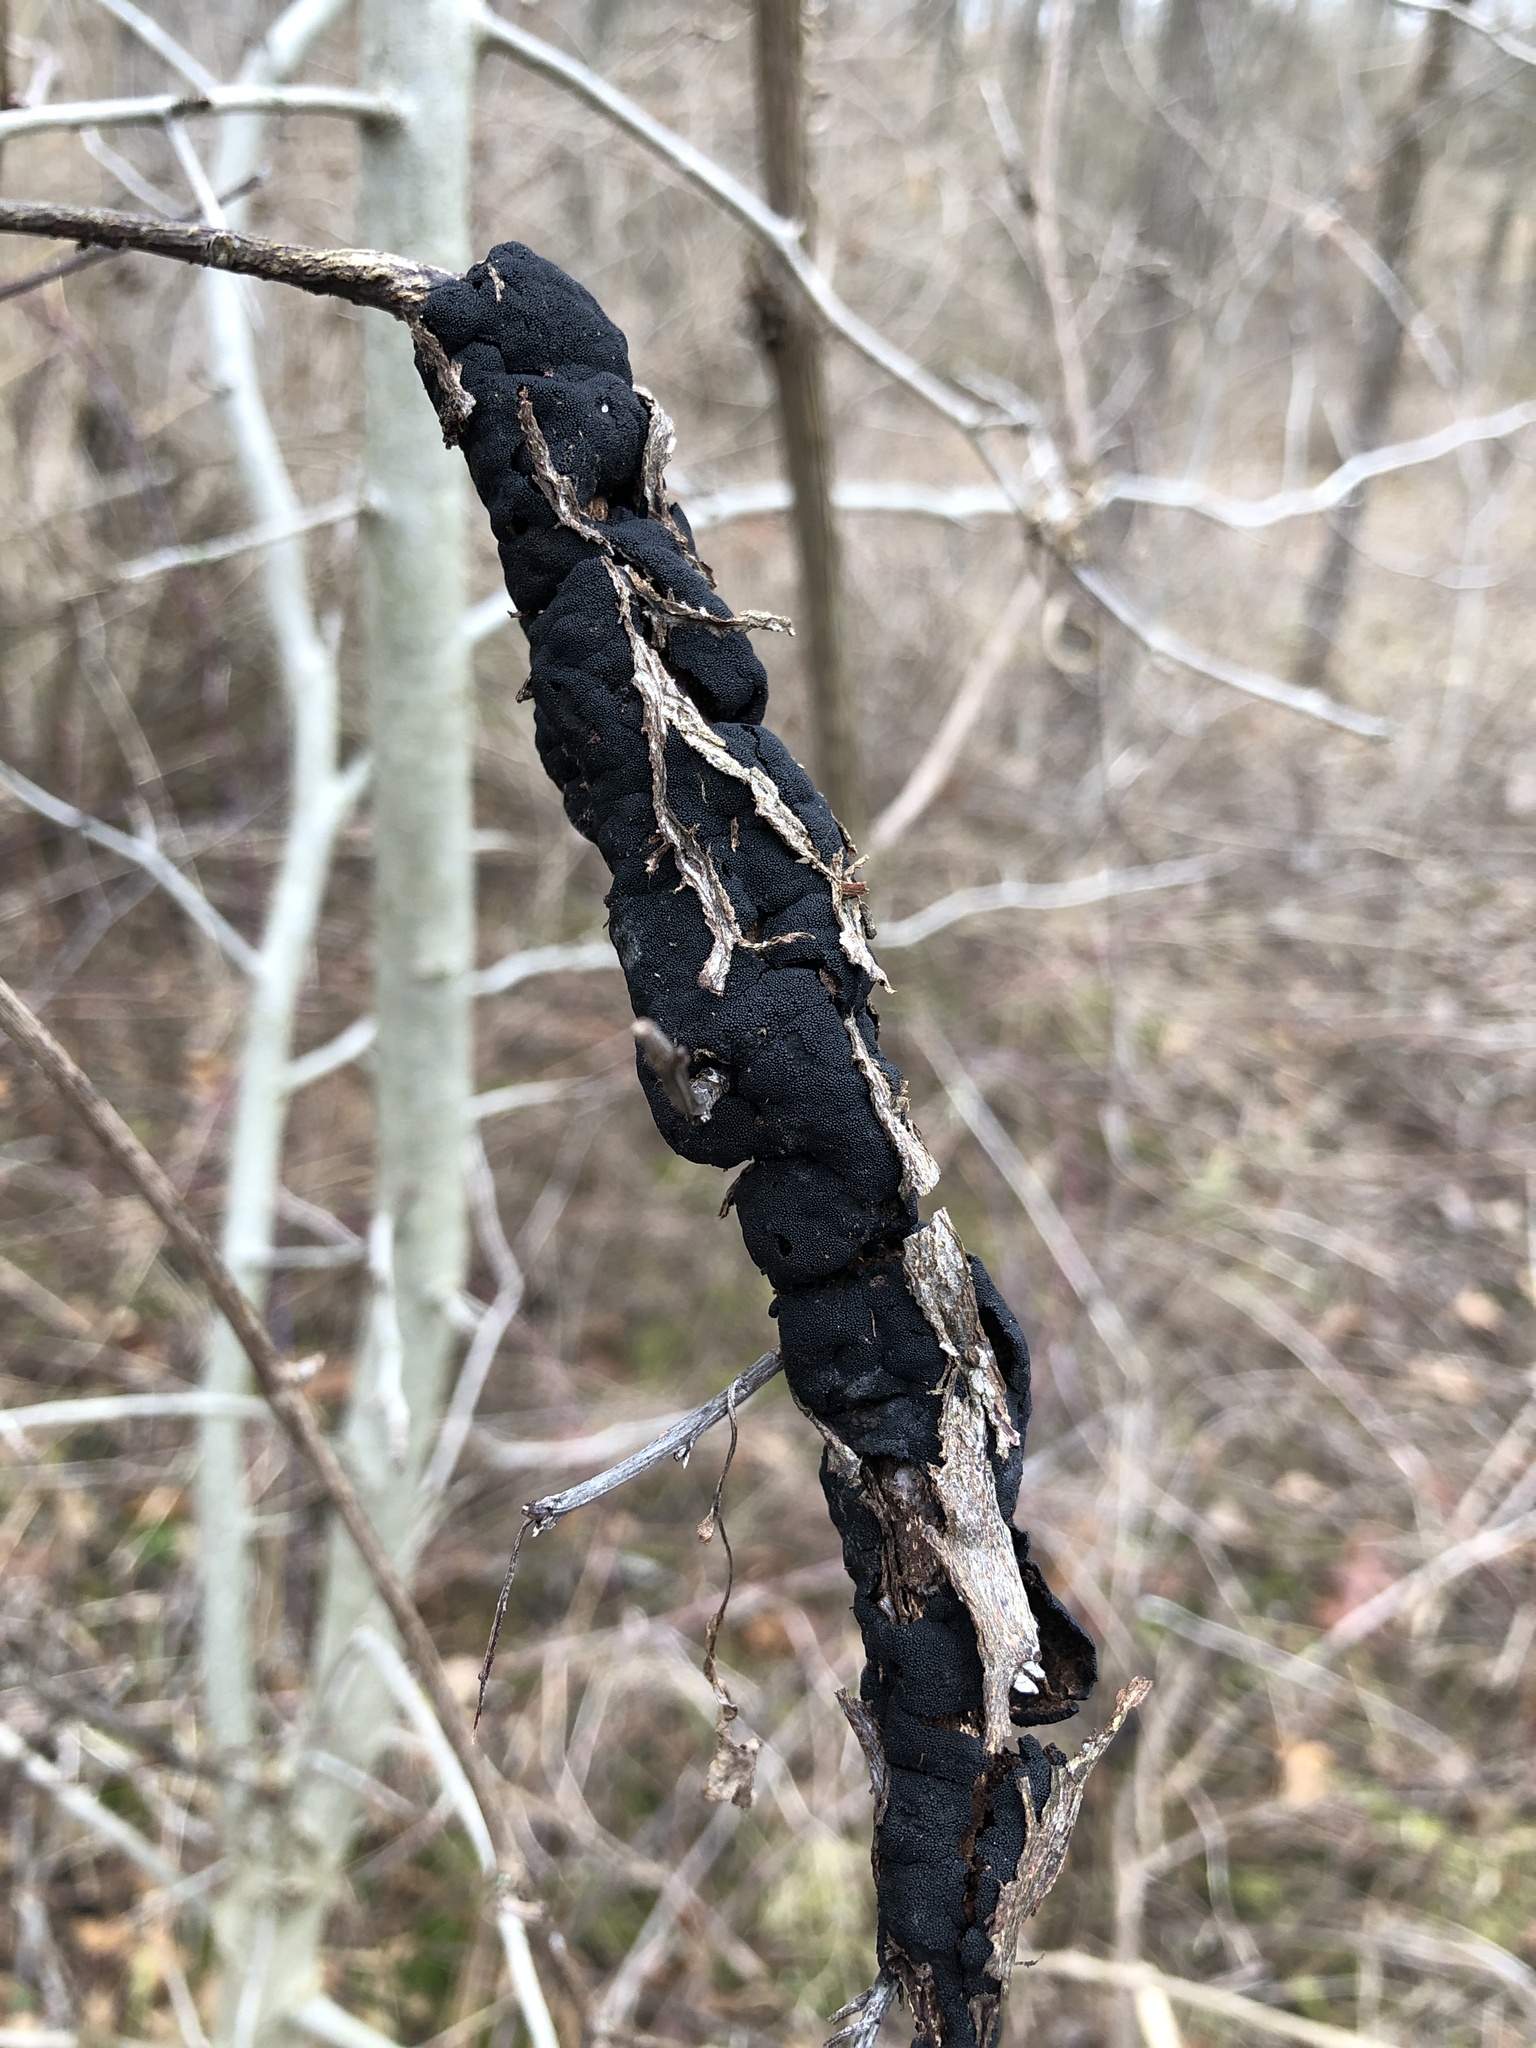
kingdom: Fungi
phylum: Ascomycota
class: Dothideomycetes
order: Venturiales
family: Venturiaceae
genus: Apiosporina
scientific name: Apiosporina morbosa
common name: Black knot
